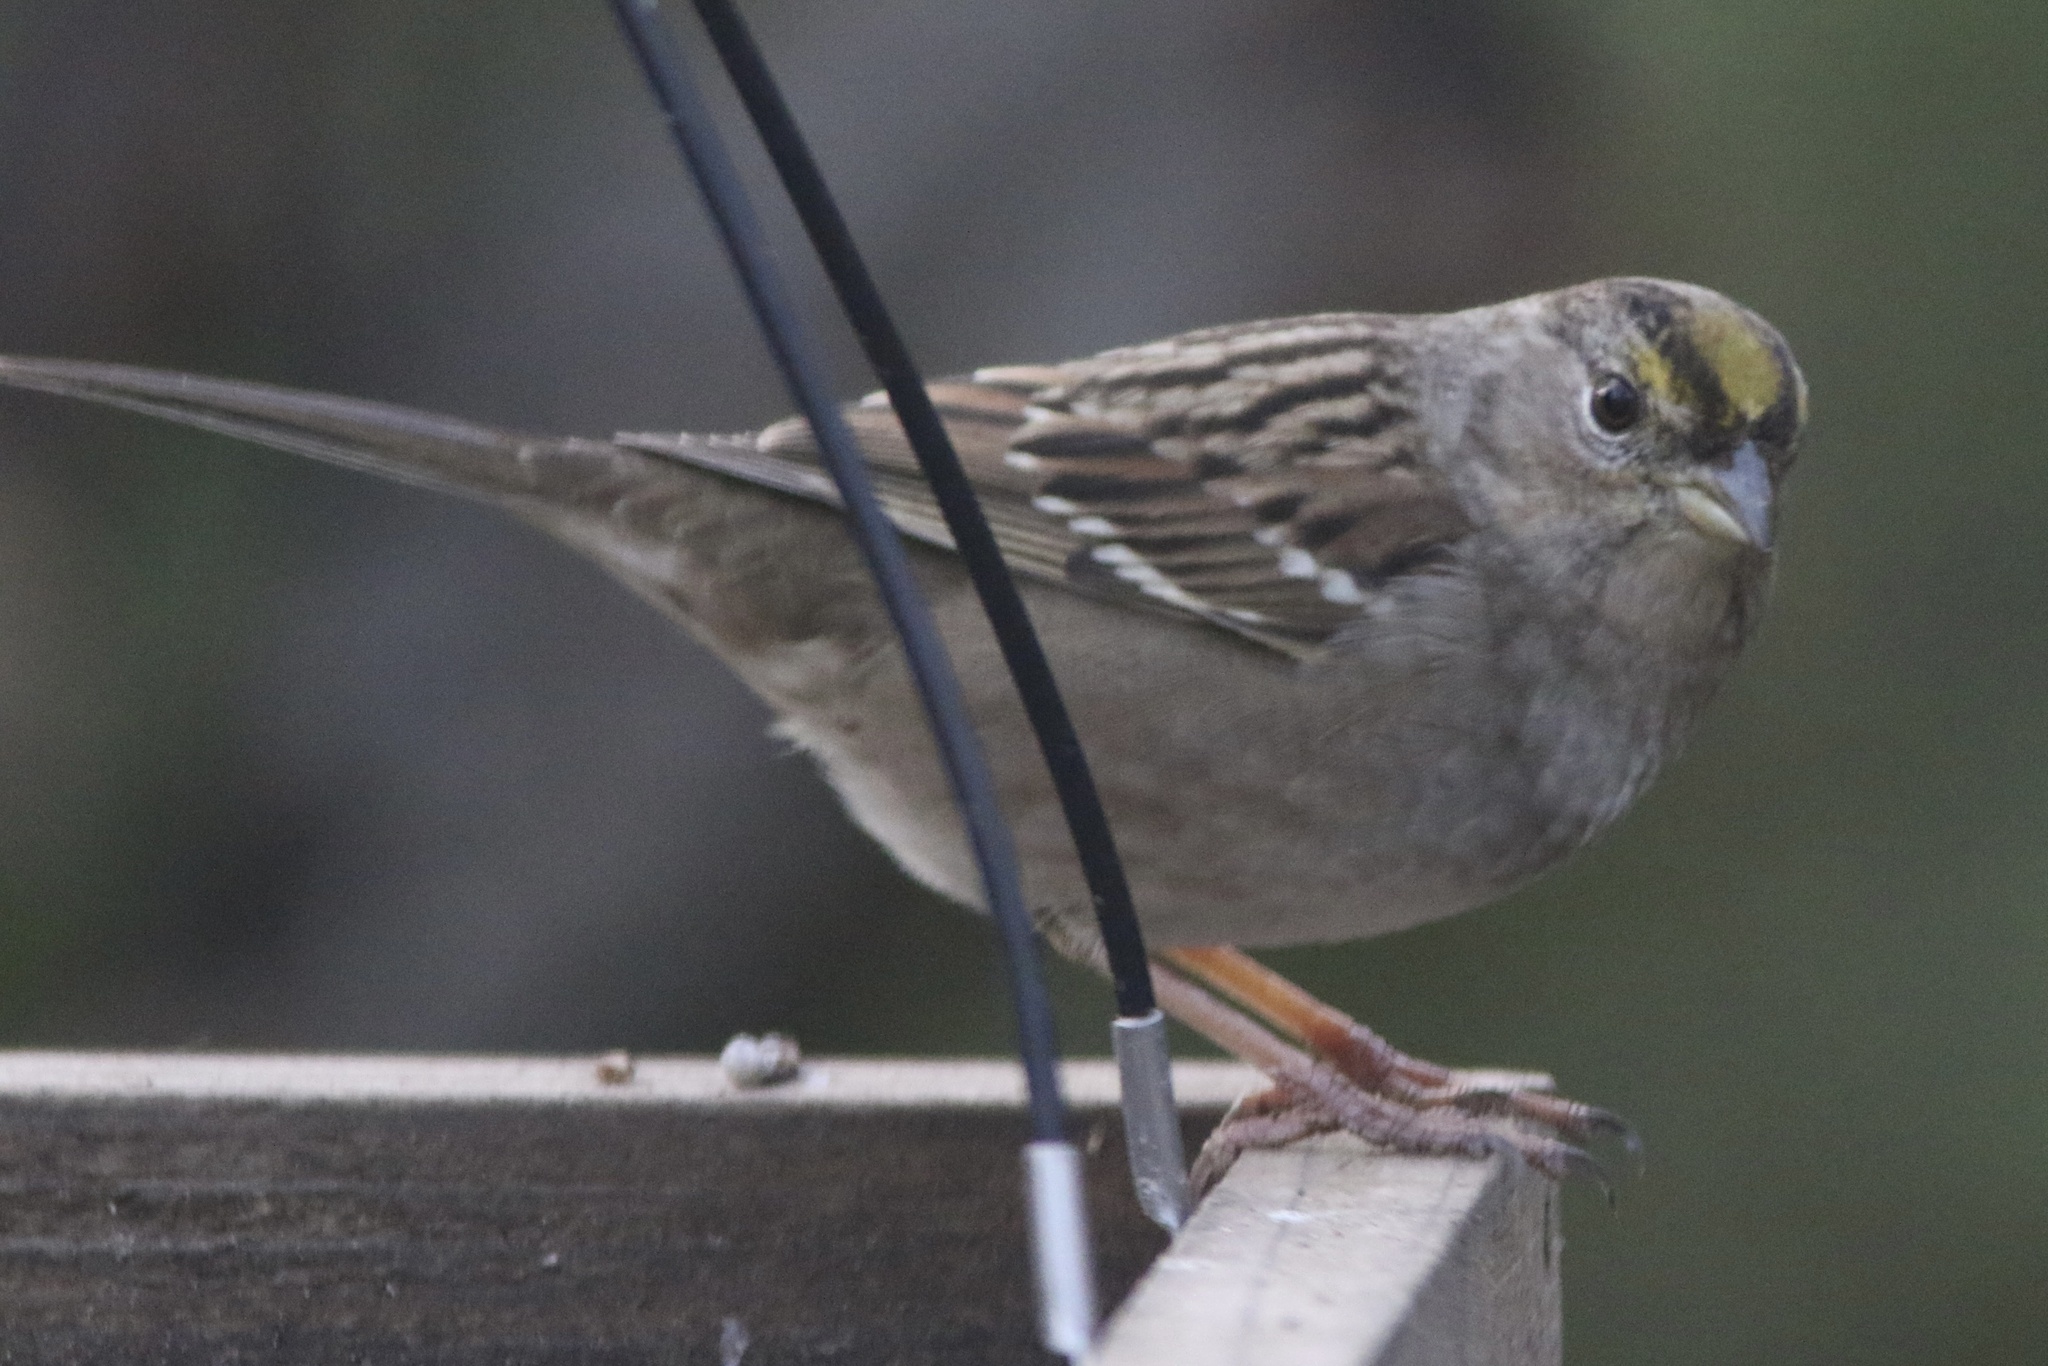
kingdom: Animalia
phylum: Chordata
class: Aves
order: Passeriformes
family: Passerellidae
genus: Zonotrichia
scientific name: Zonotrichia atricapilla
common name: Golden-crowned sparrow
